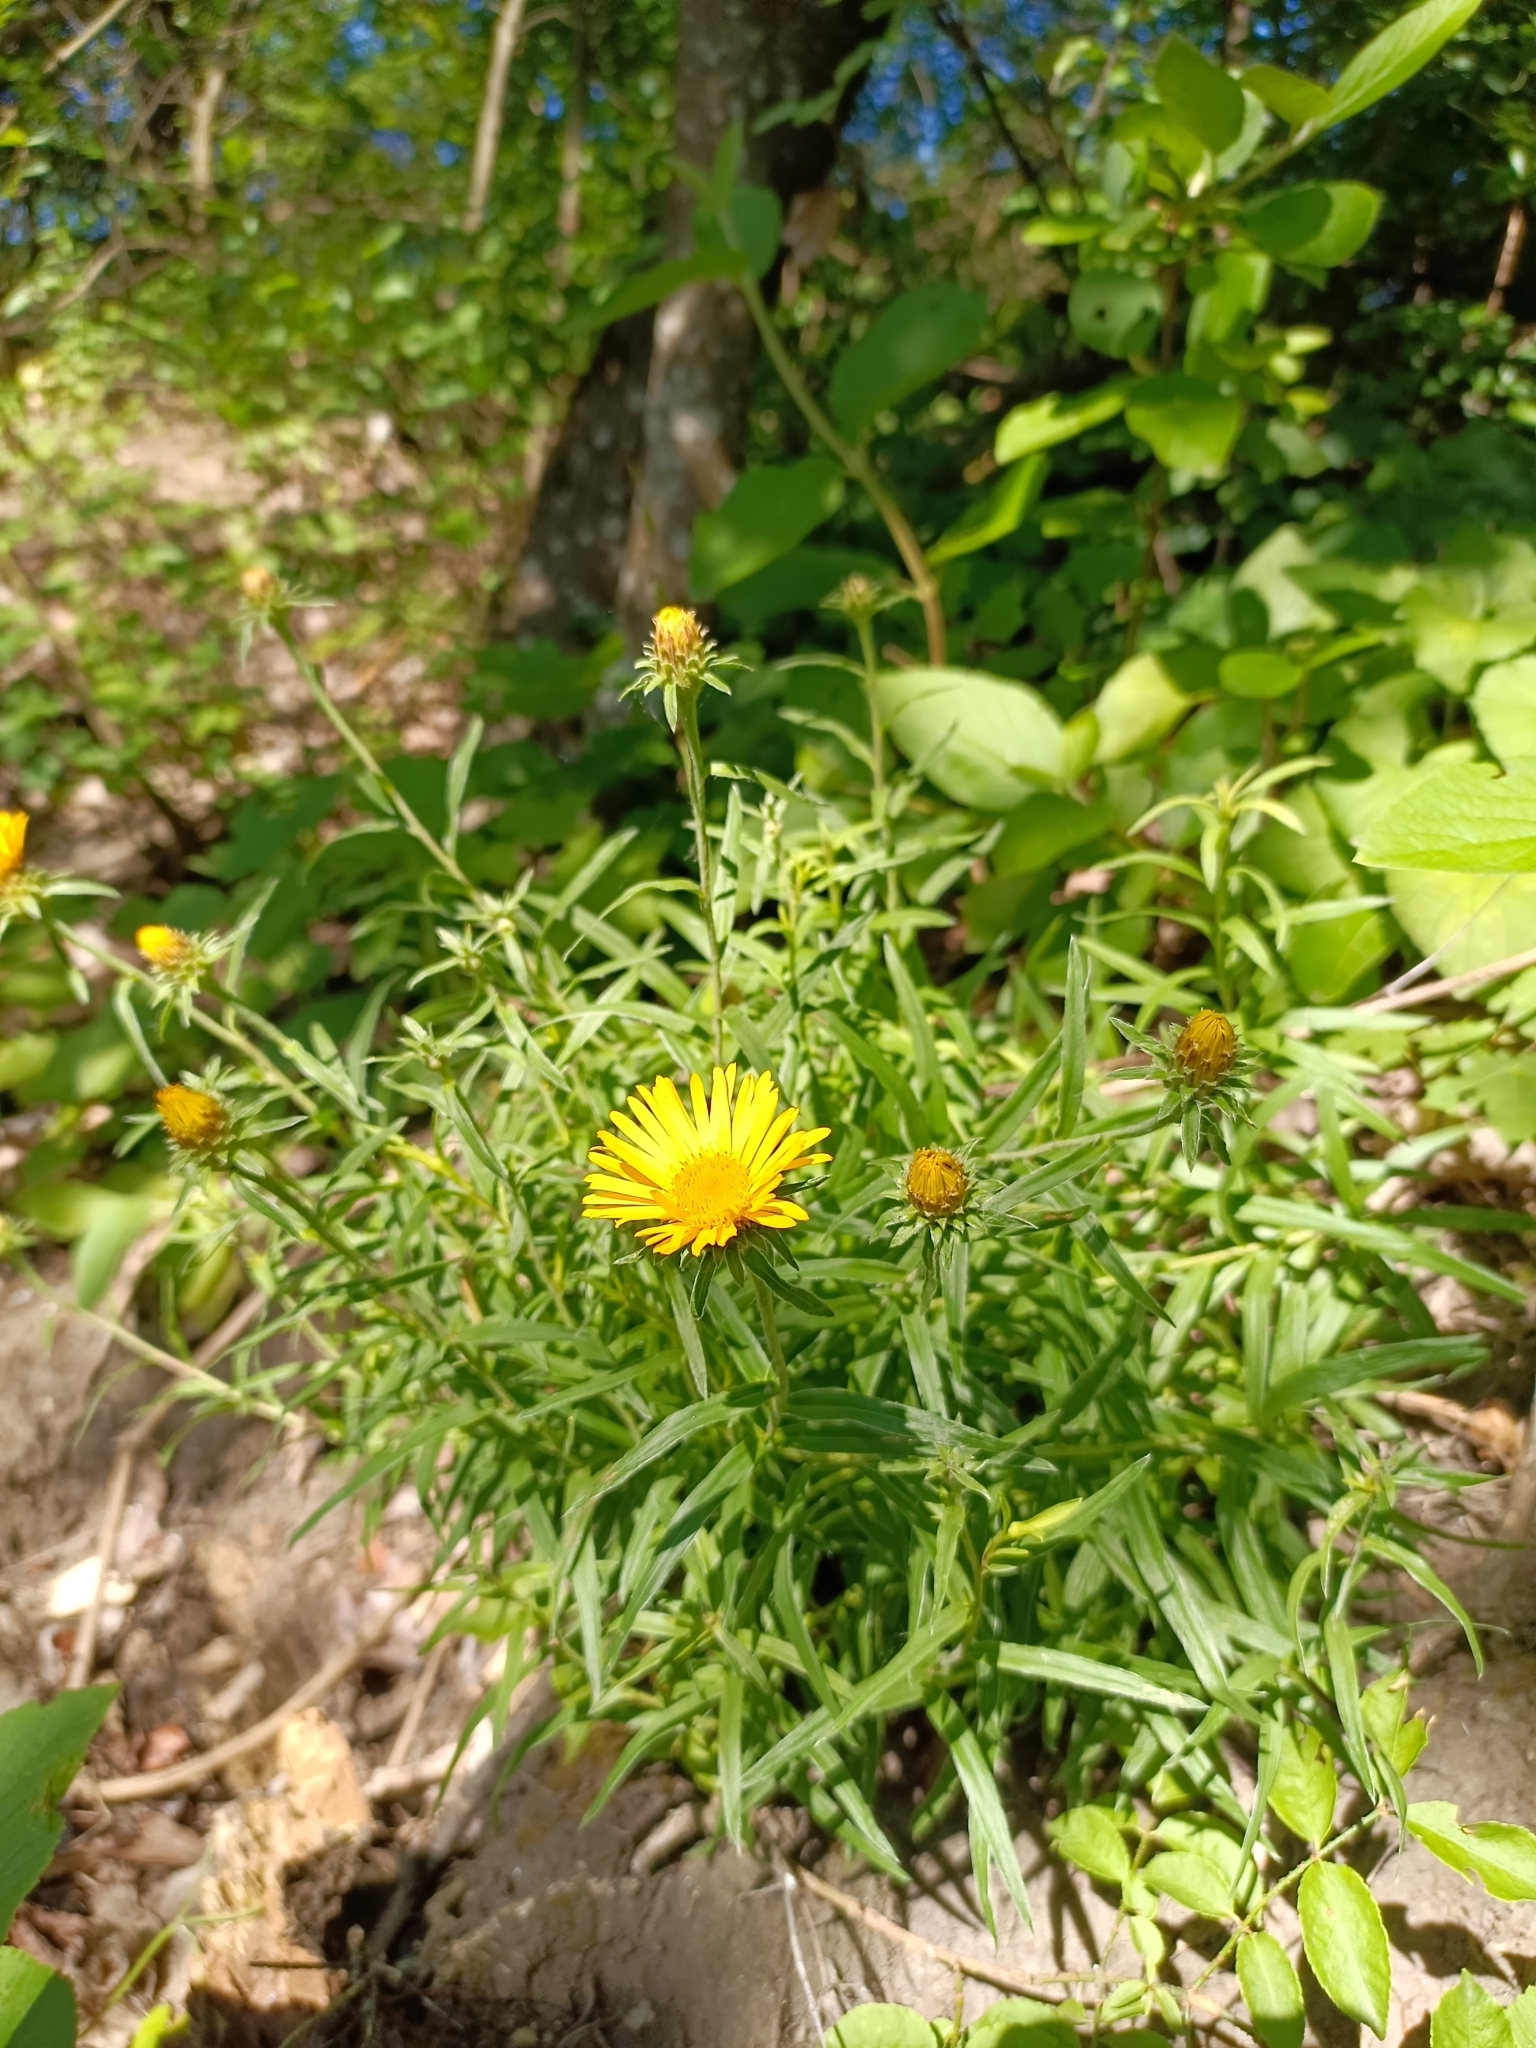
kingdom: Plantae
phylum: Tracheophyta
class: Magnoliopsida
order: Asterales
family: Asteraceae
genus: Pentanema
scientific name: Pentanema ensifolium
